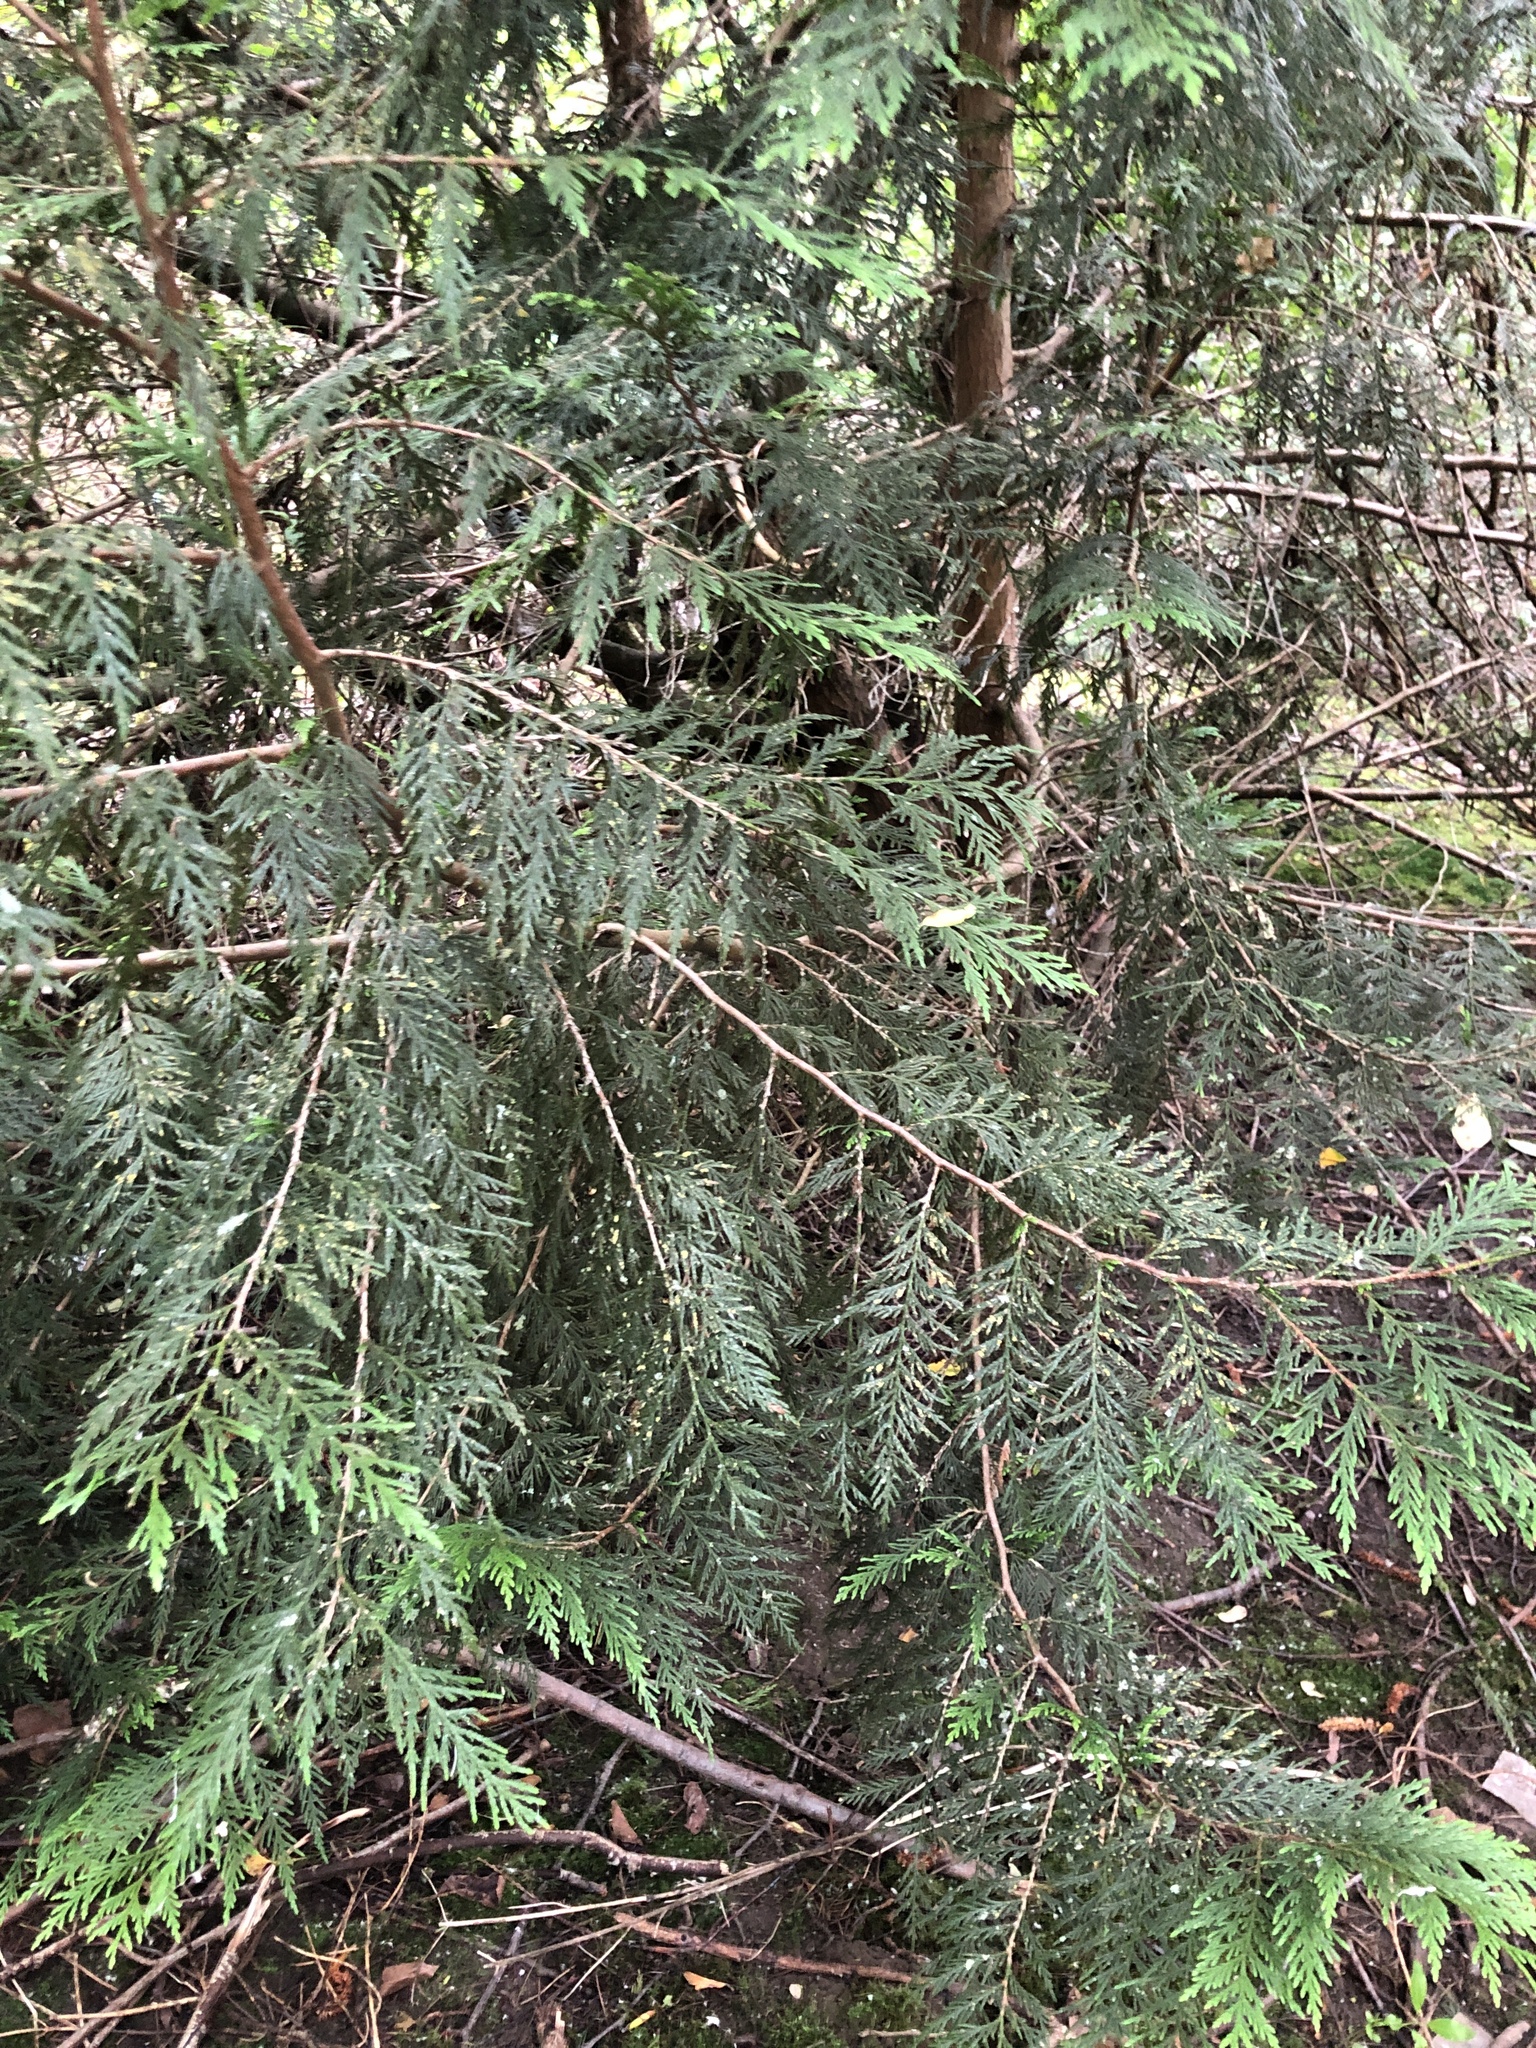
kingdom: Plantae
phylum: Tracheophyta
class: Pinopsida
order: Pinales
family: Cupressaceae
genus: Thuja
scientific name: Thuja plicata
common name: Western red-cedar
